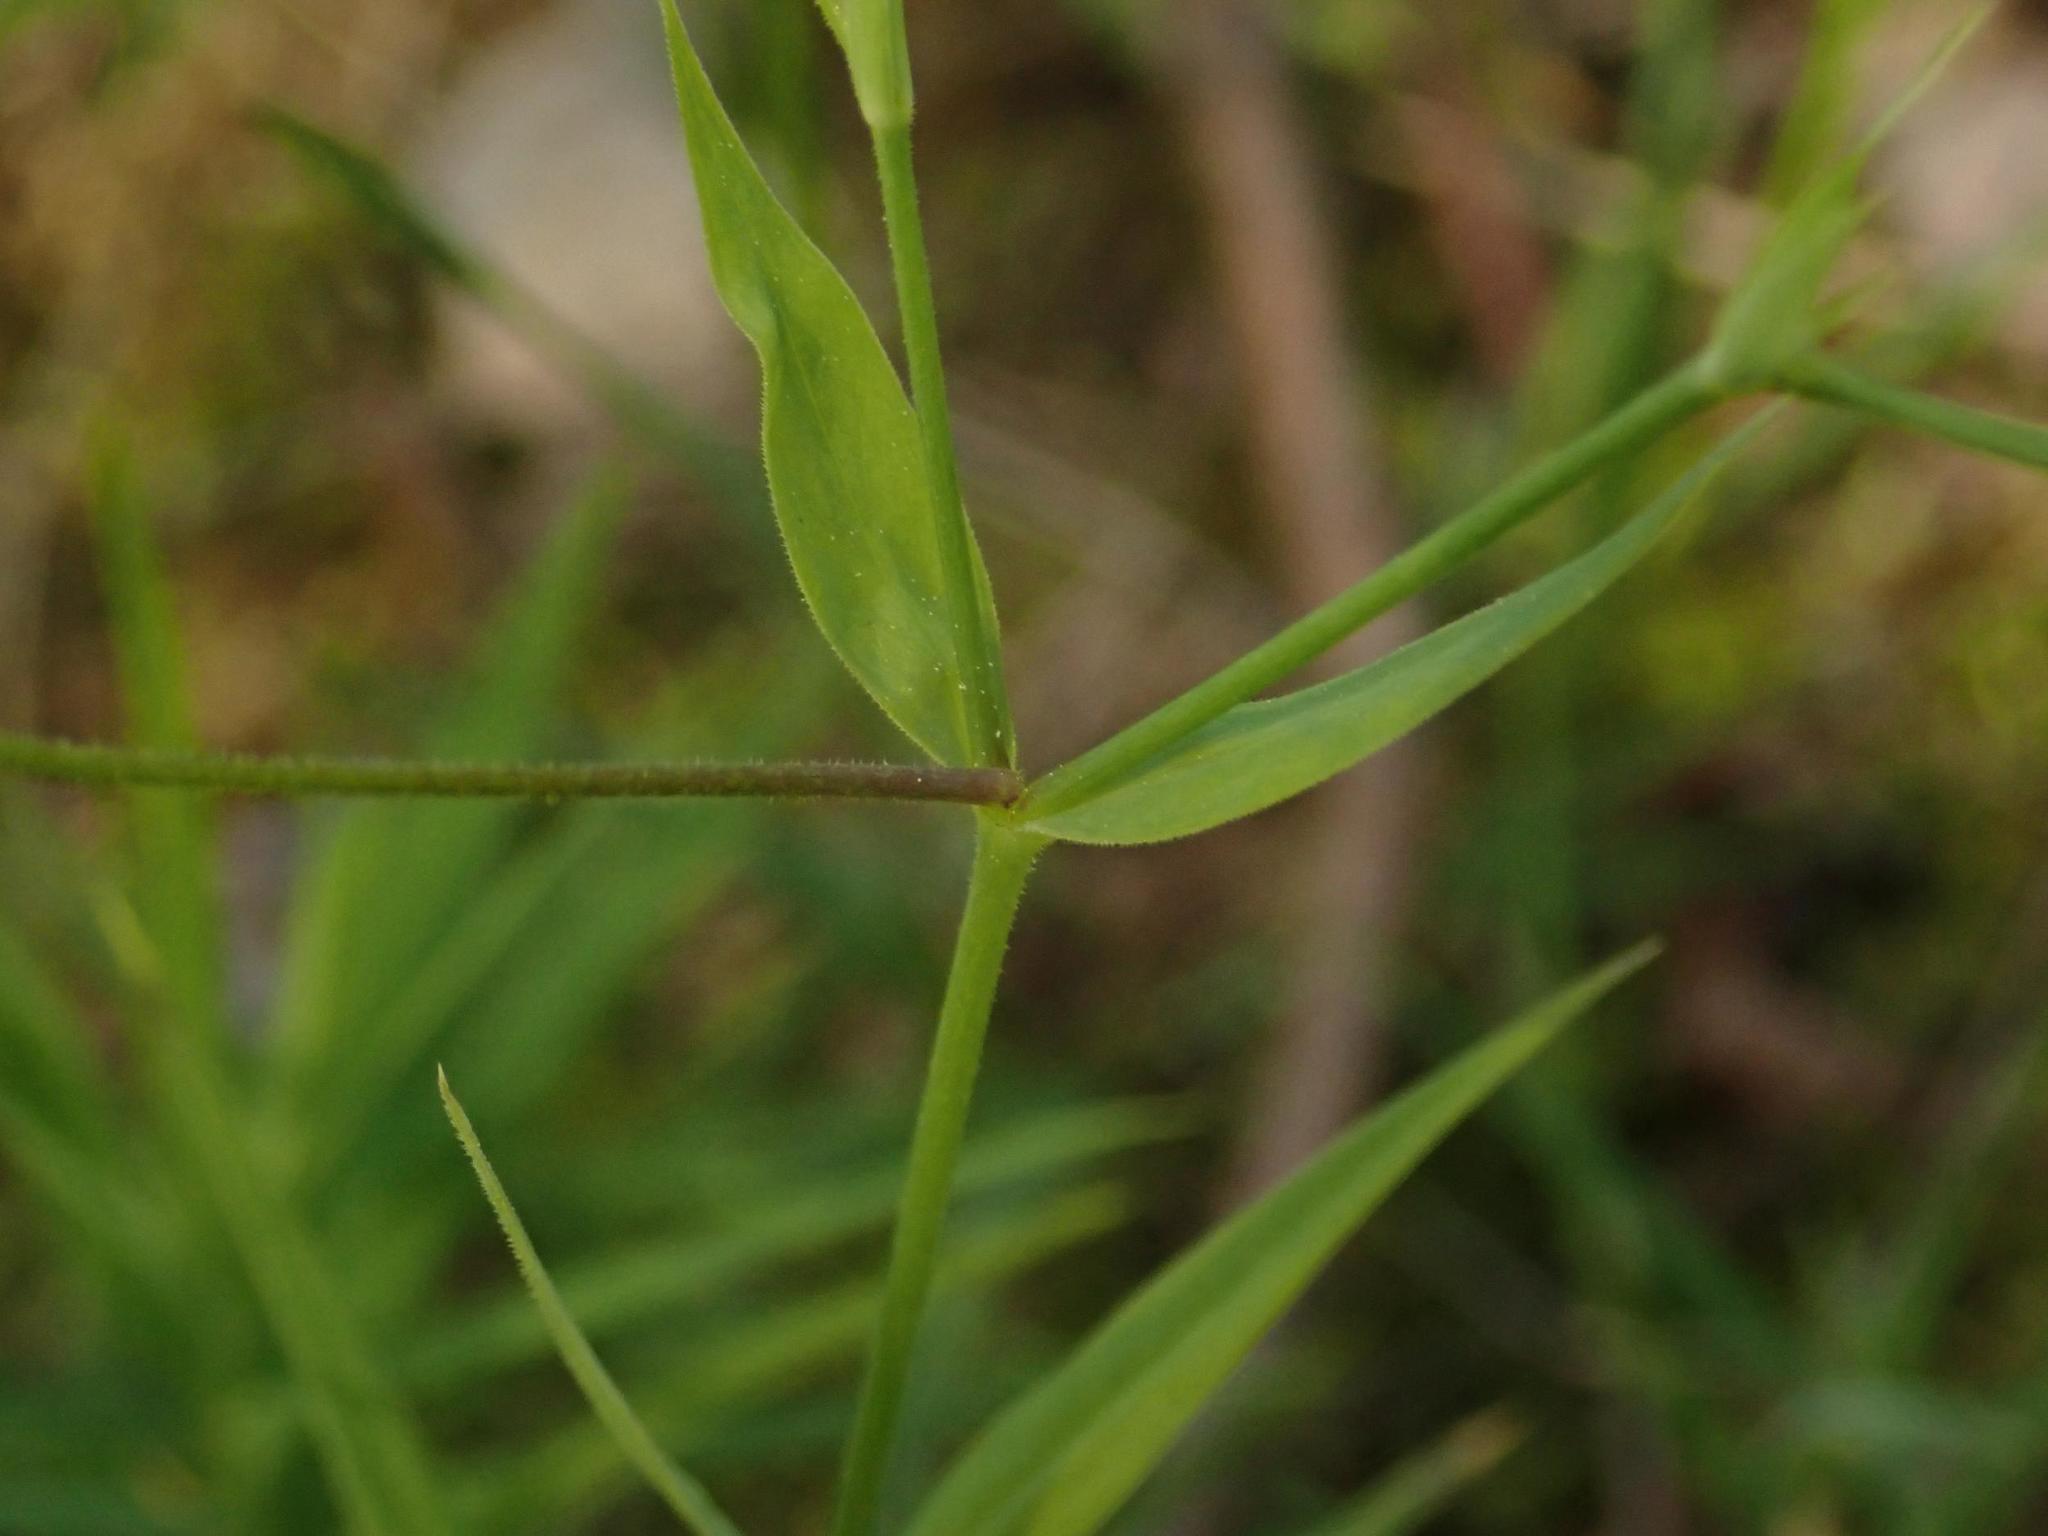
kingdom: Plantae
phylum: Tracheophyta
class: Magnoliopsida
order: Caryophyllales
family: Caryophyllaceae
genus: Rabelera
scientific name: Rabelera holostea
